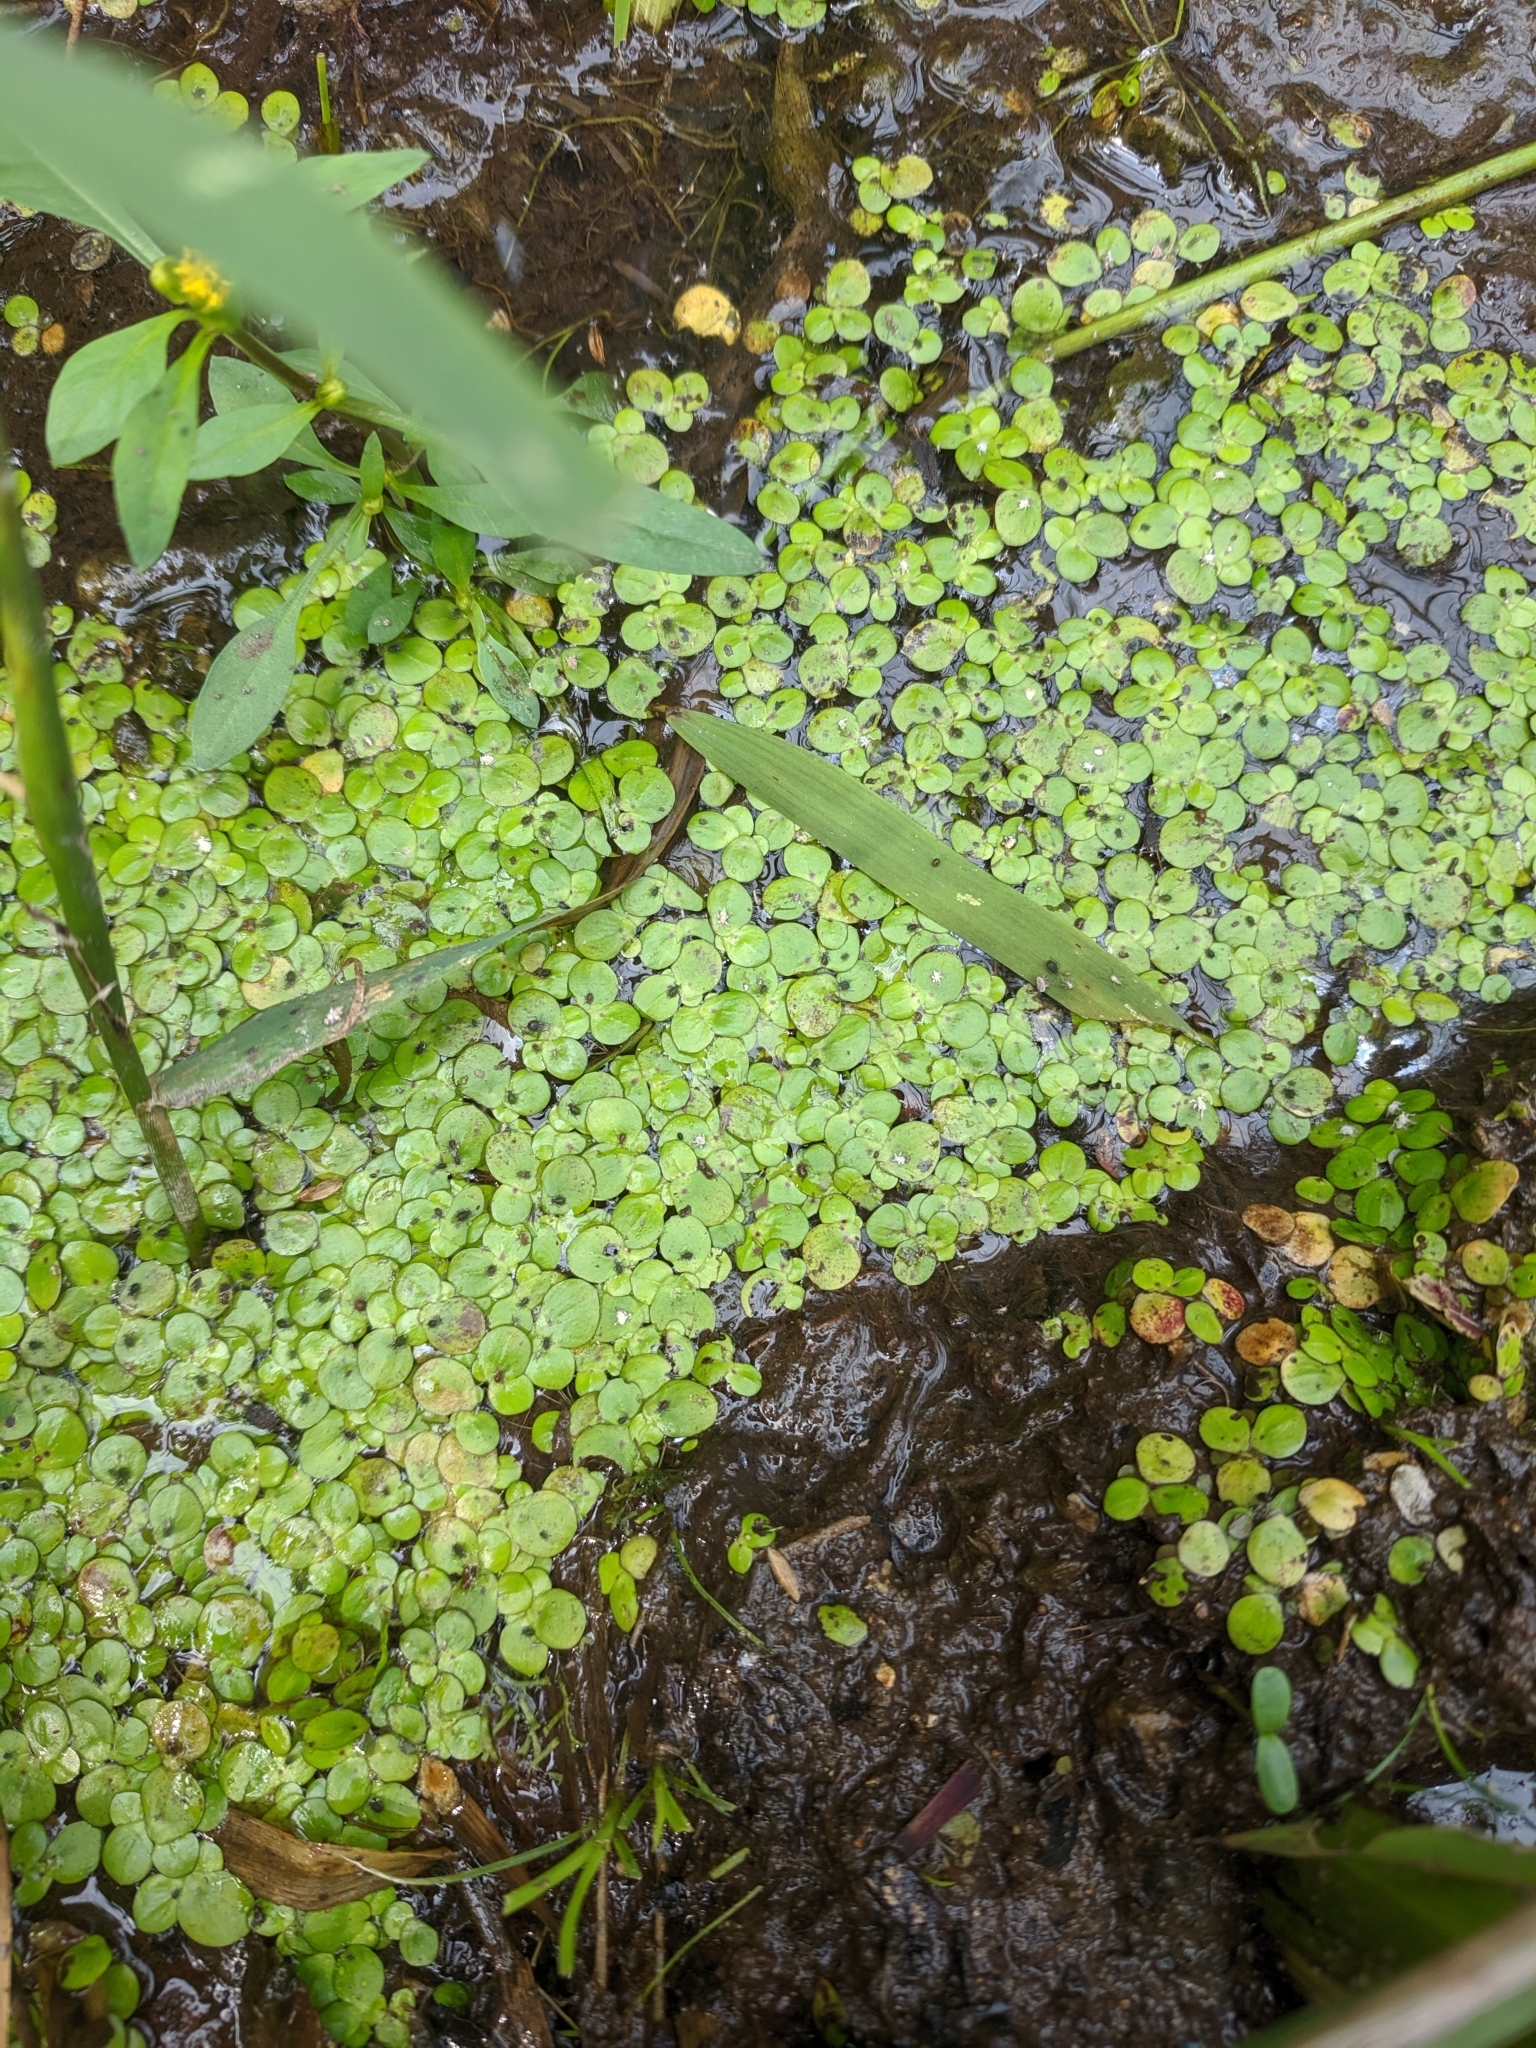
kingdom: Plantae
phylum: Tracheophyta
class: Liliopsida
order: Alismatales
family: Araceae
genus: Spirodela
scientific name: Spirodela polyrhiza
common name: Great duckweed
